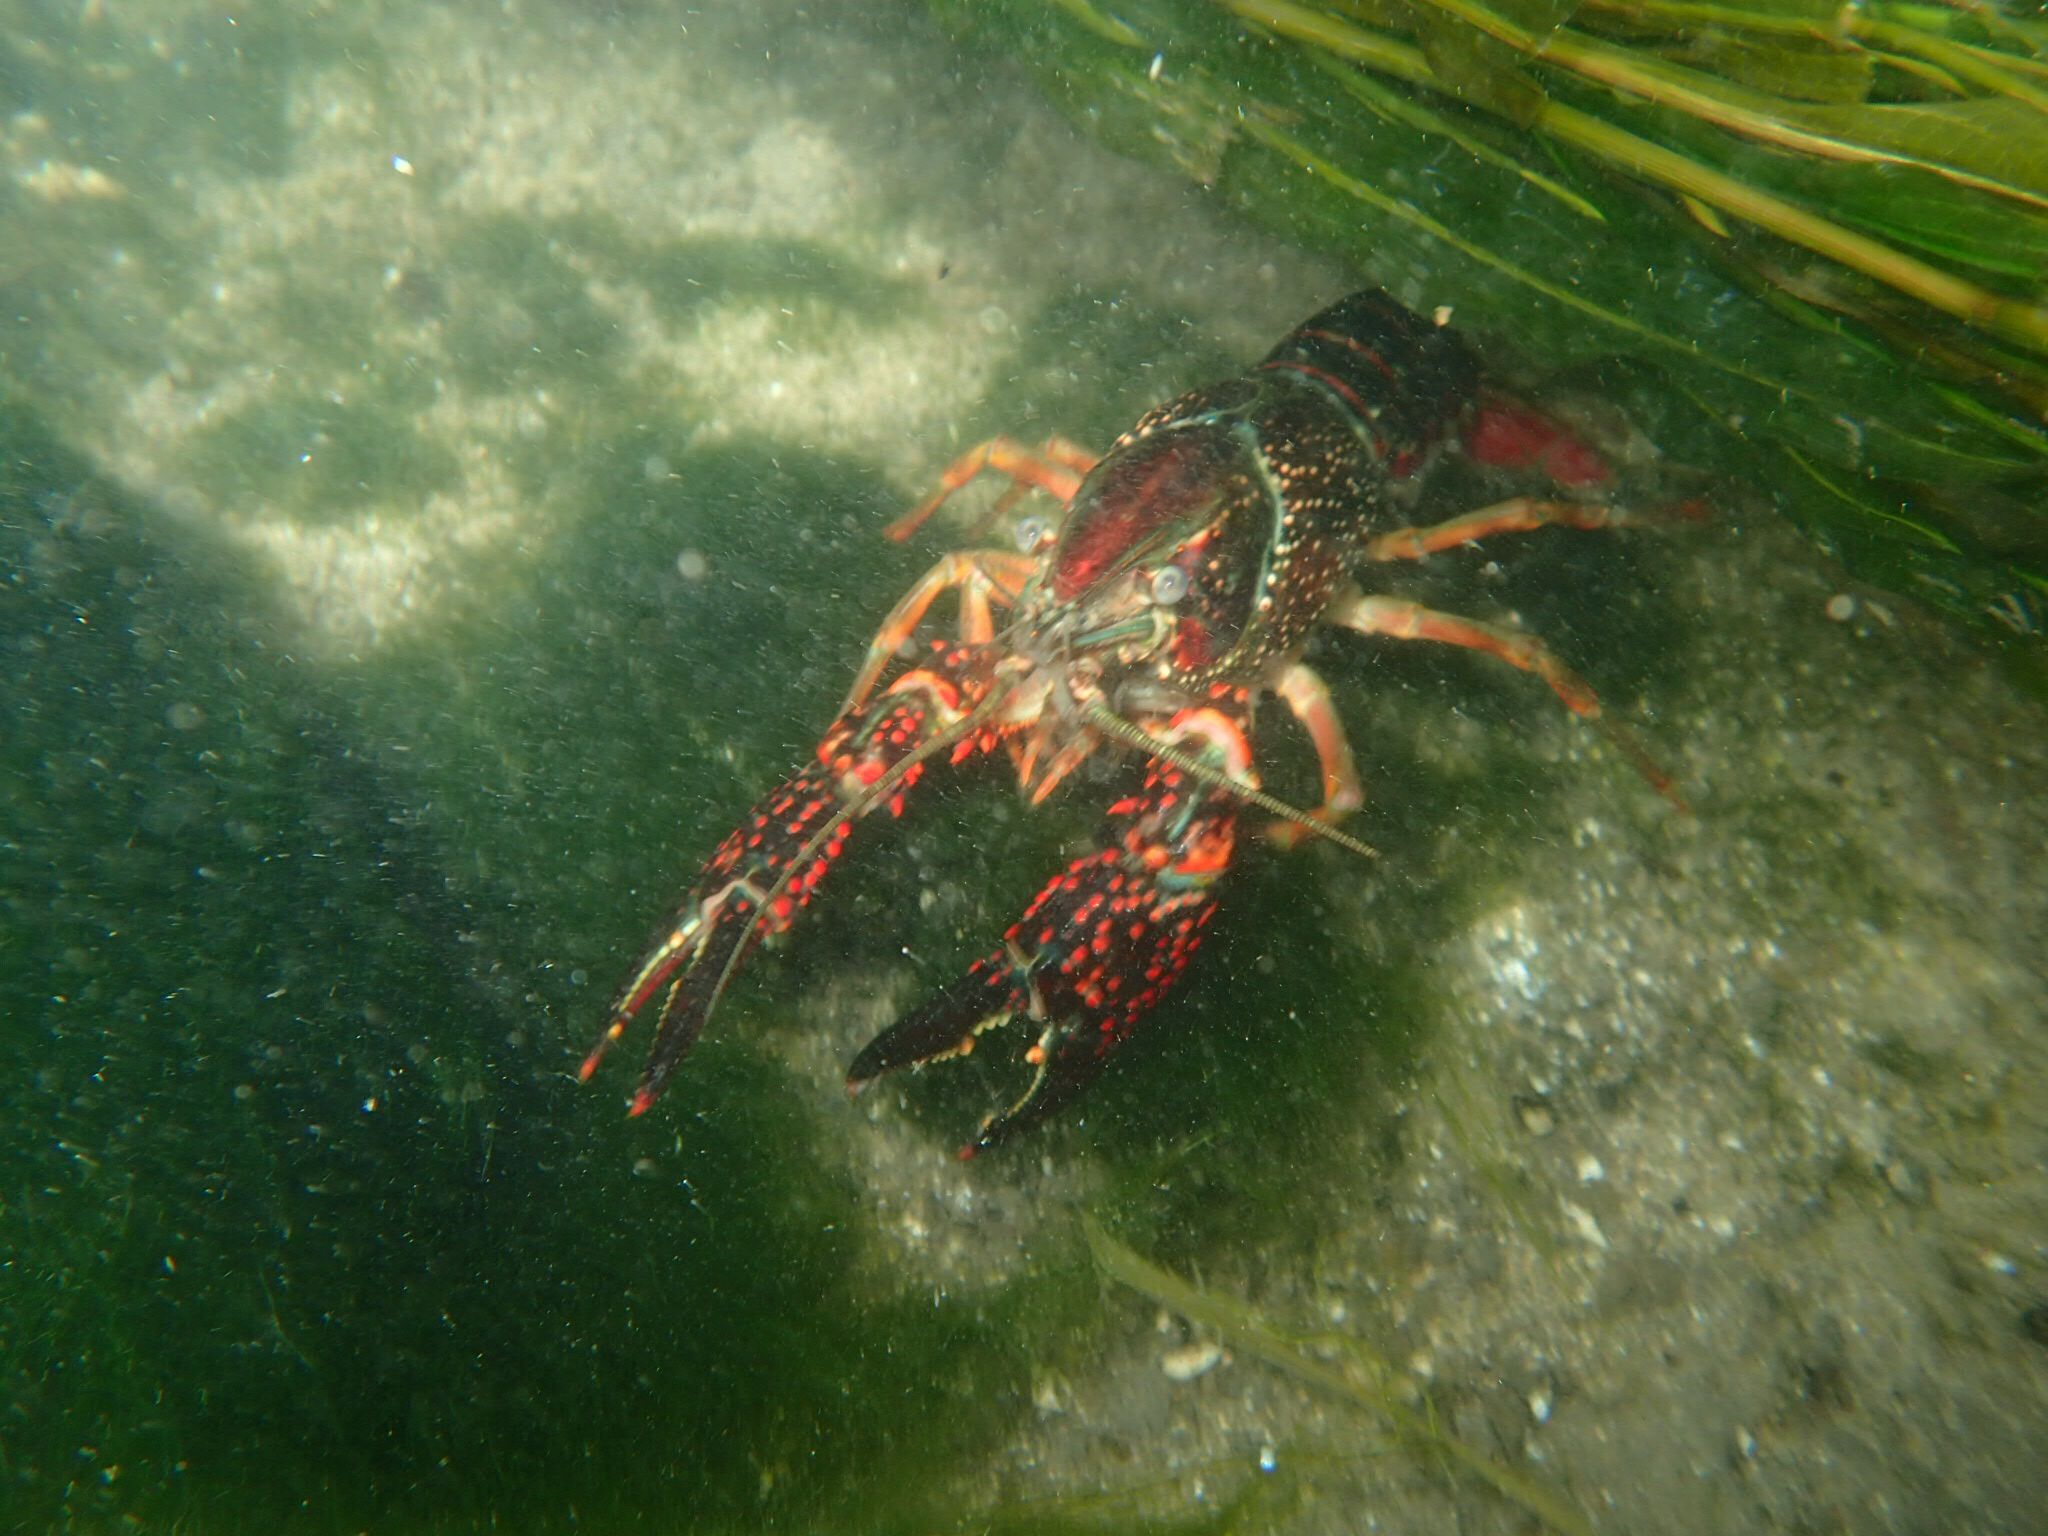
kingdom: Animalia
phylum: Arthropoda
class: Malacostraca
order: Decapoda
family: Cambaridae
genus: Procambarus
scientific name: Procambarus clarkii
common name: Red swamp crayfish
